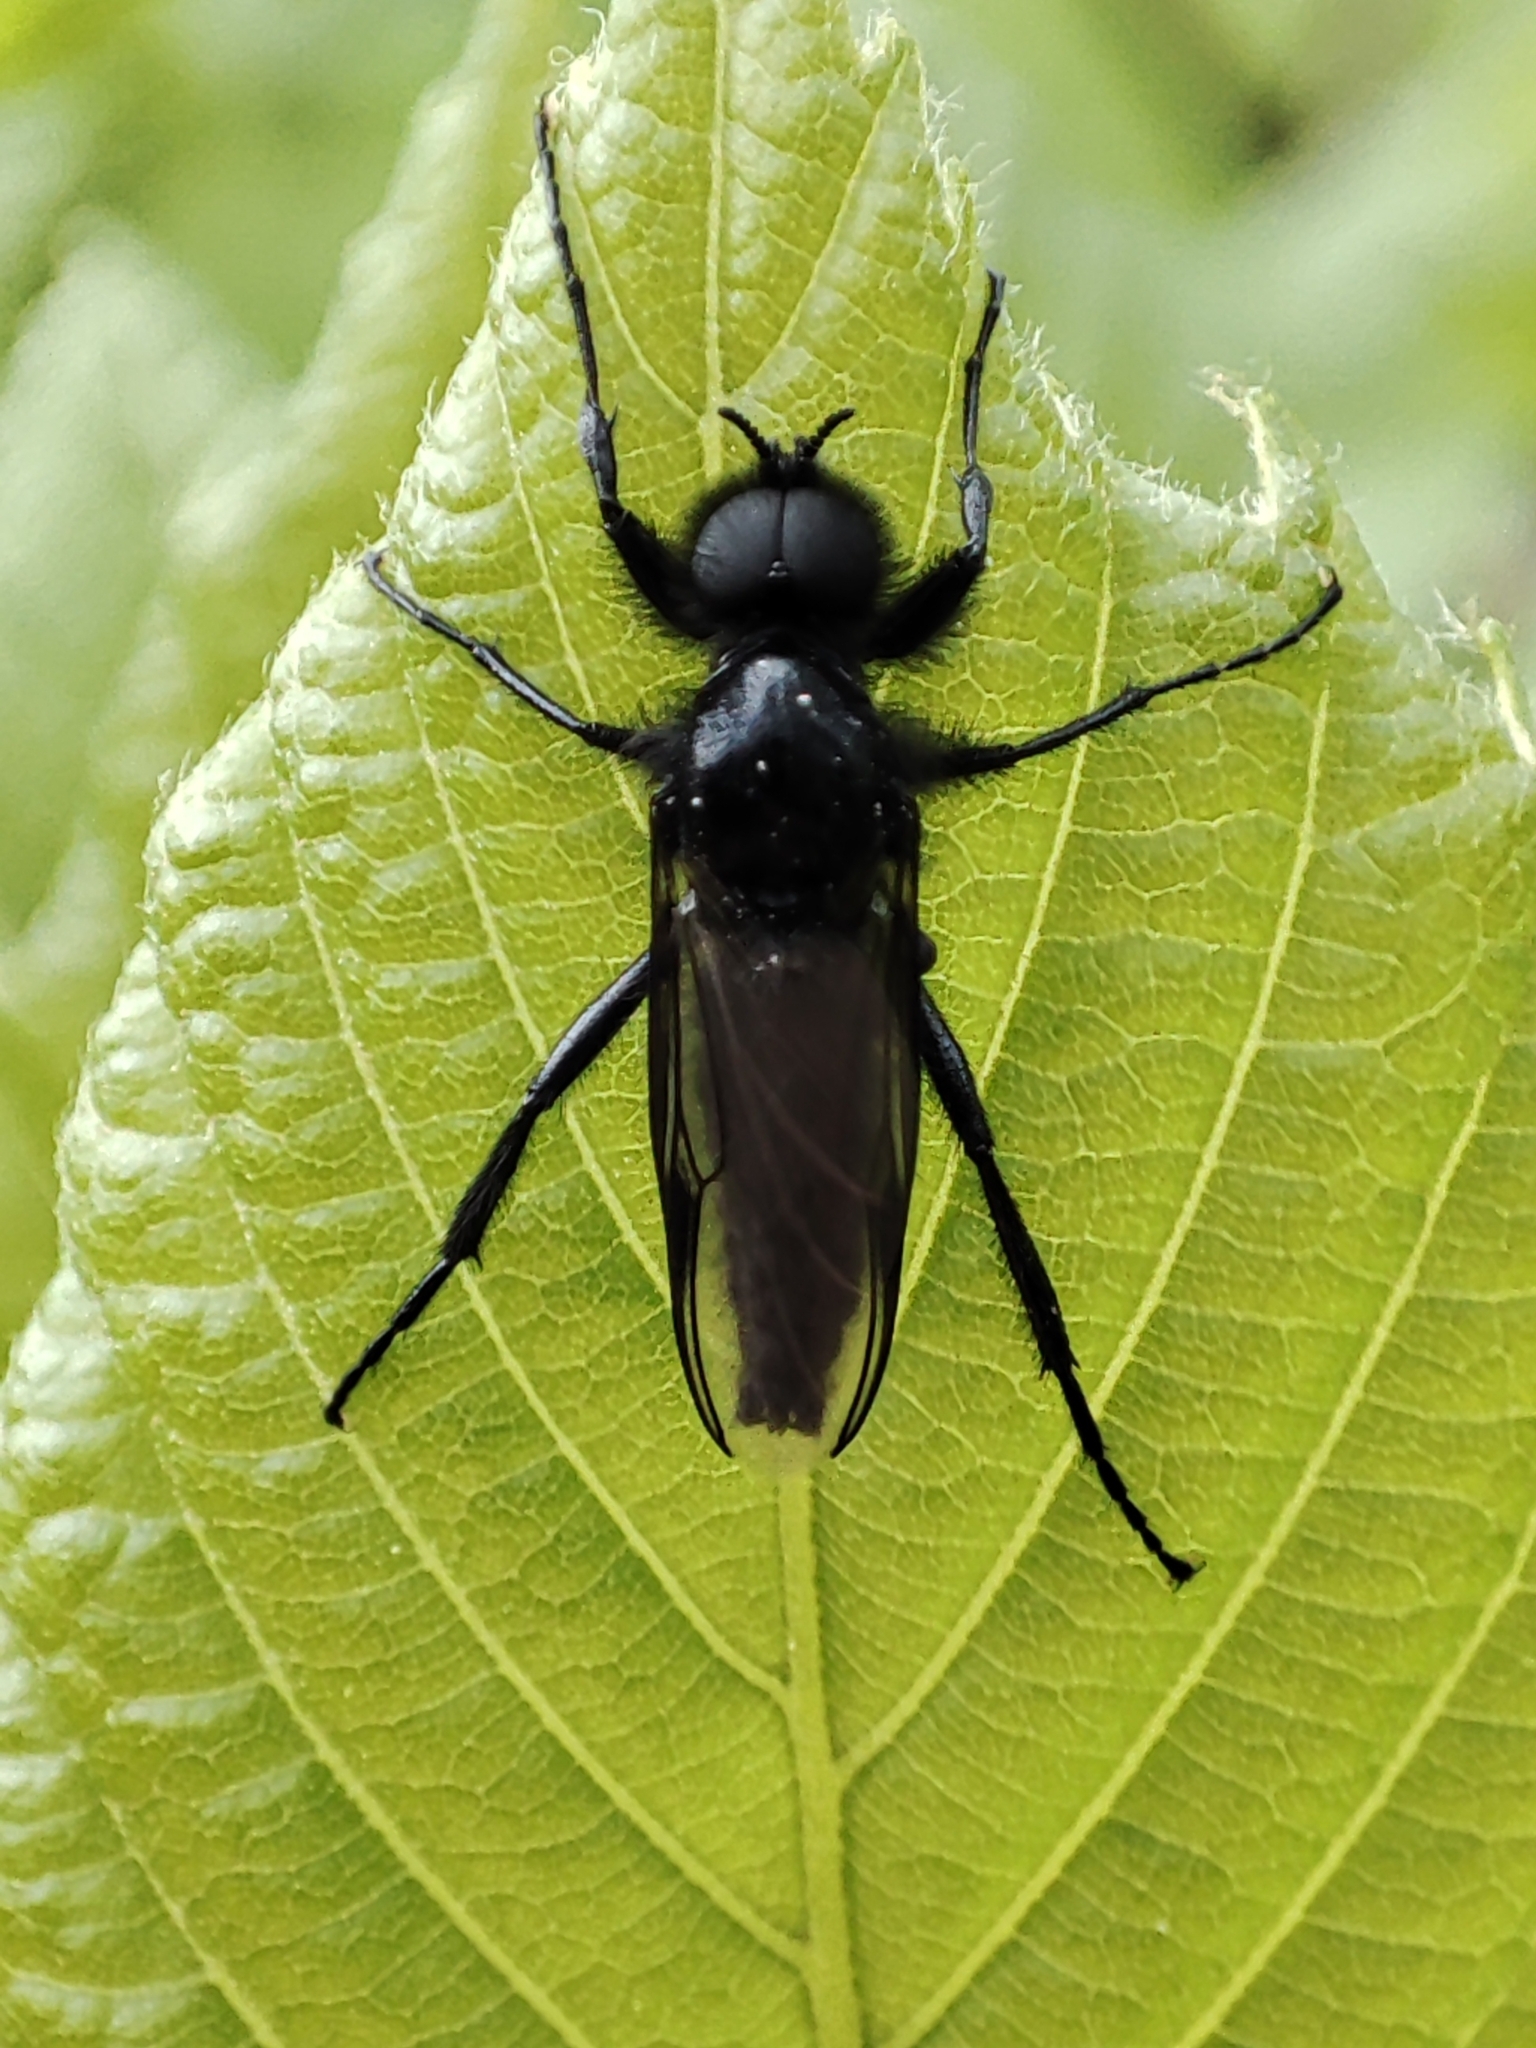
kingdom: Animalia
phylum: Arthropoda
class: Insecta
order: Diptera
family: Bibionidae
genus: Bibio
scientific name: Bibio marci
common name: St marks fly
